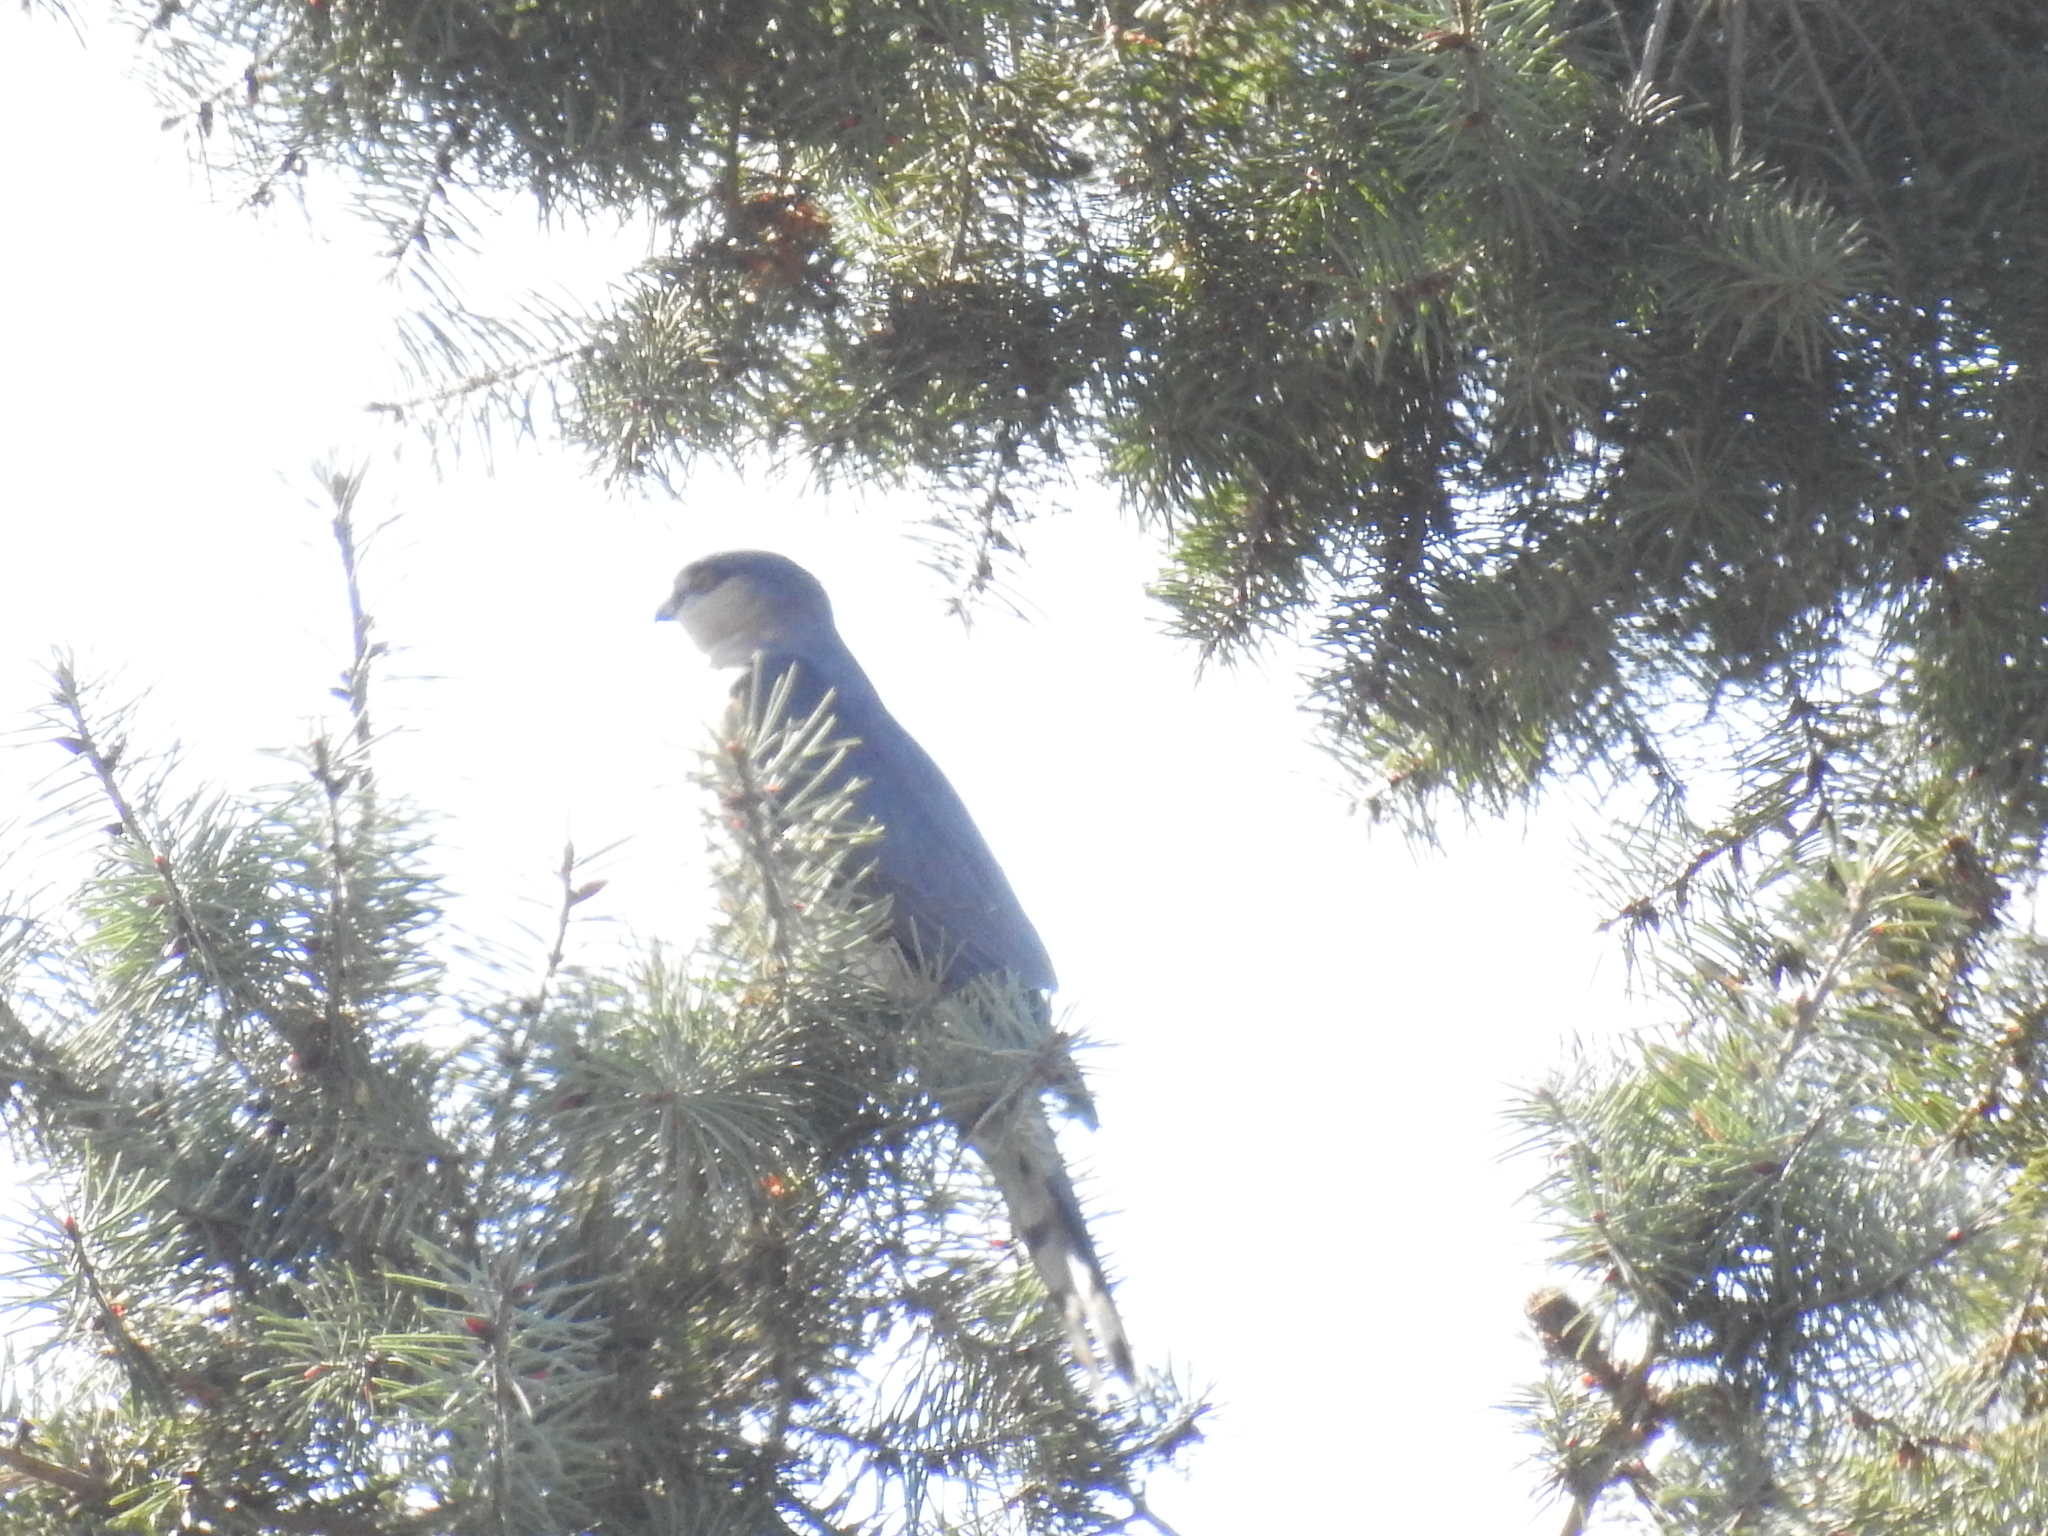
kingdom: Animalia
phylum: Chordata
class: Aves
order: Accipitriformes
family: Accipitridae
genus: Accipiter
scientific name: Accipiter striatus
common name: Sharp-shinned hawk
